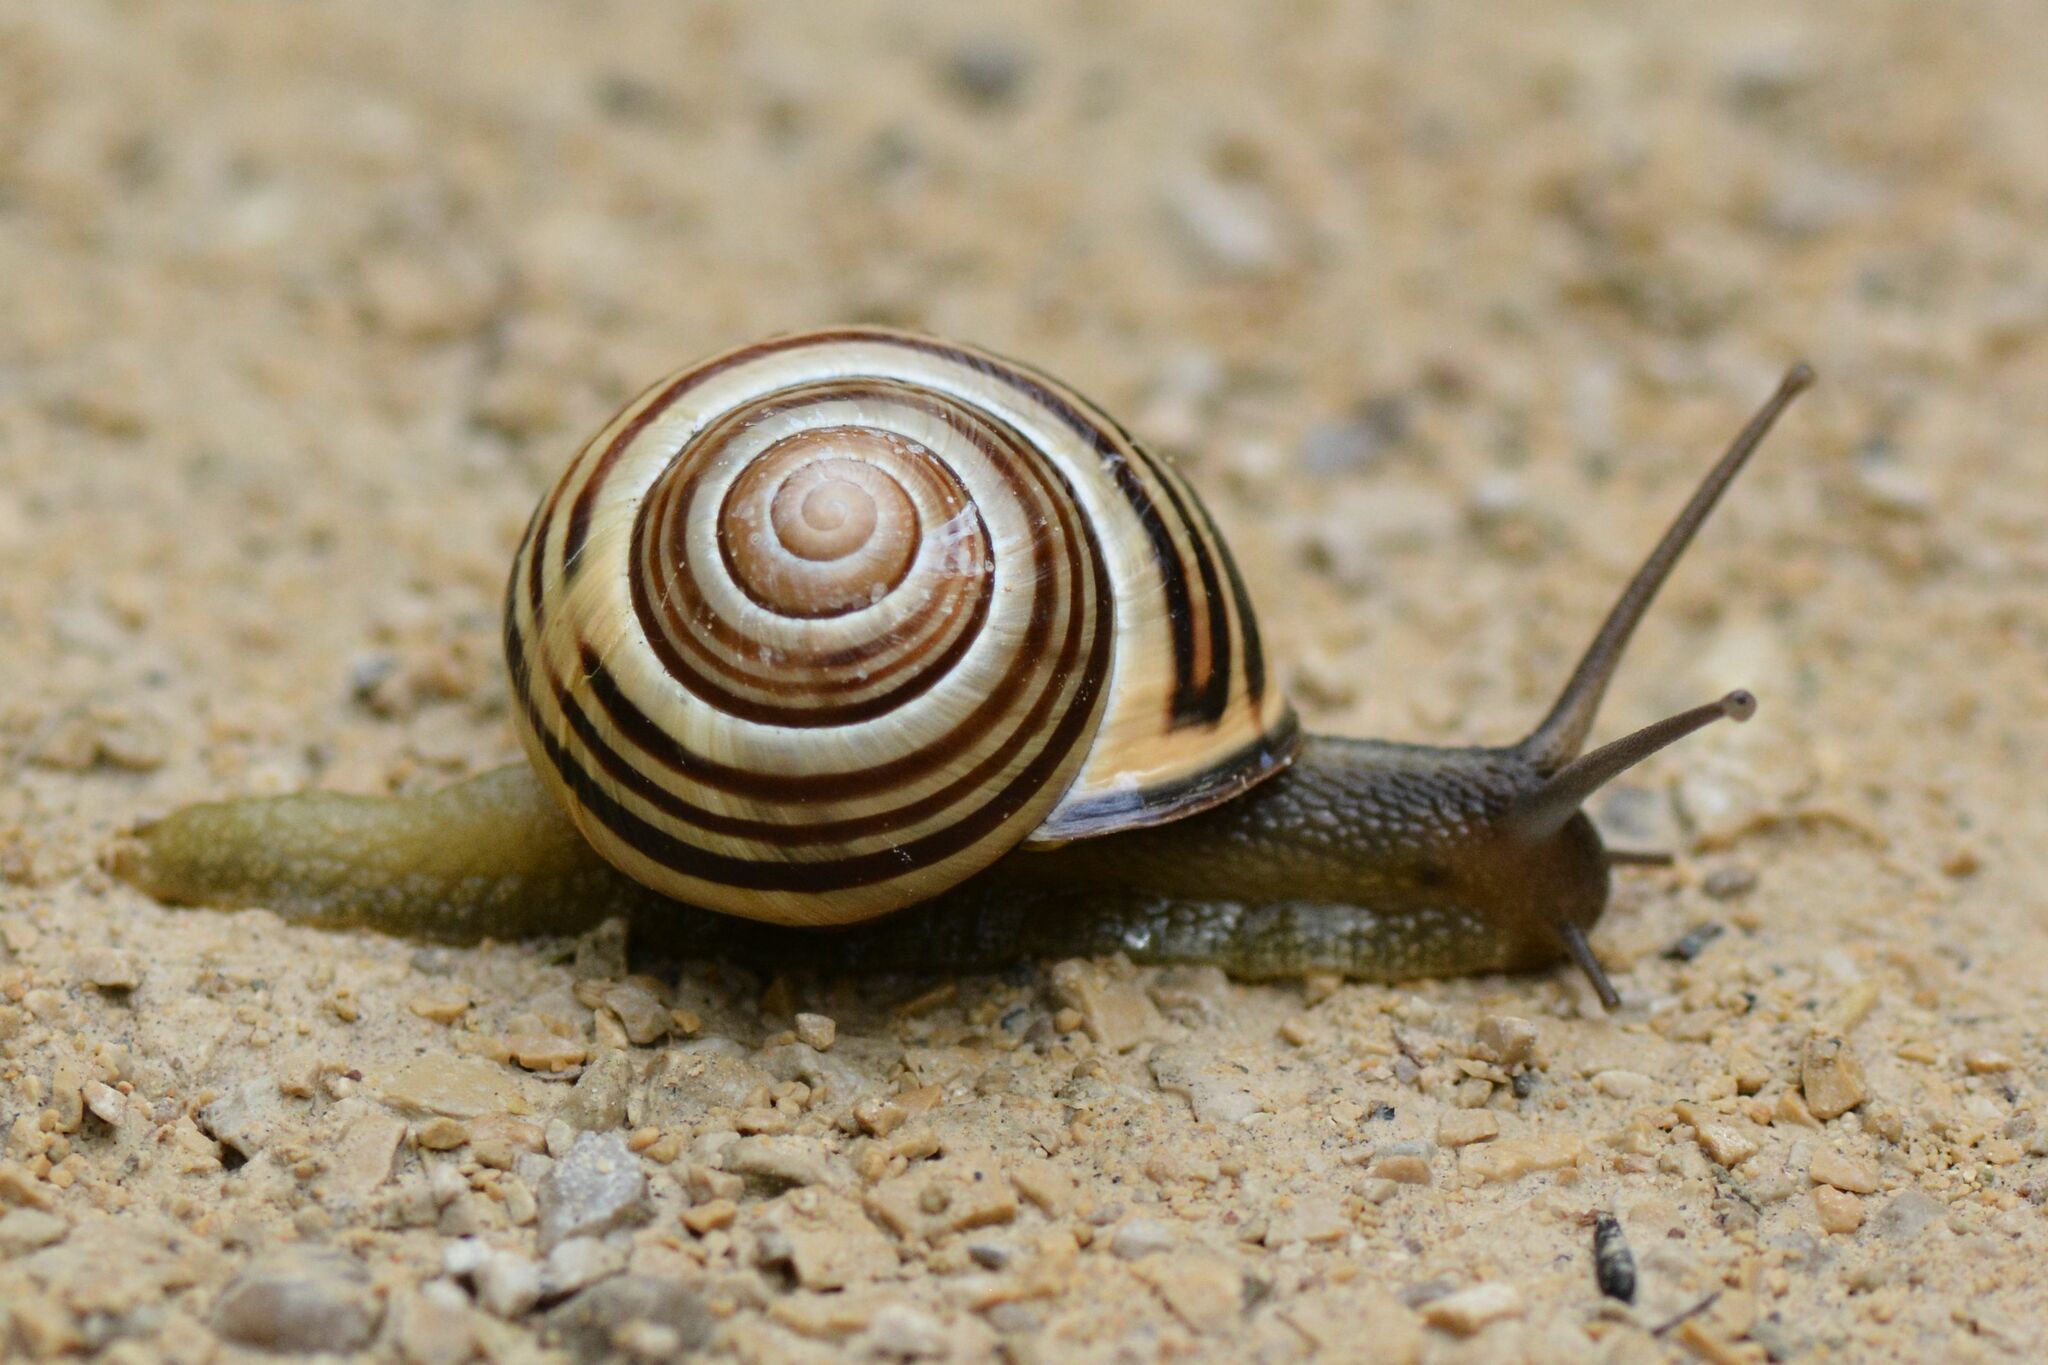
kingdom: Animalia
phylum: Mollusca
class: Gastropoda
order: Stylommatophora
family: Helicidae
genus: Cepaea
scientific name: Cepaea nemoralis
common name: Grovesnail
